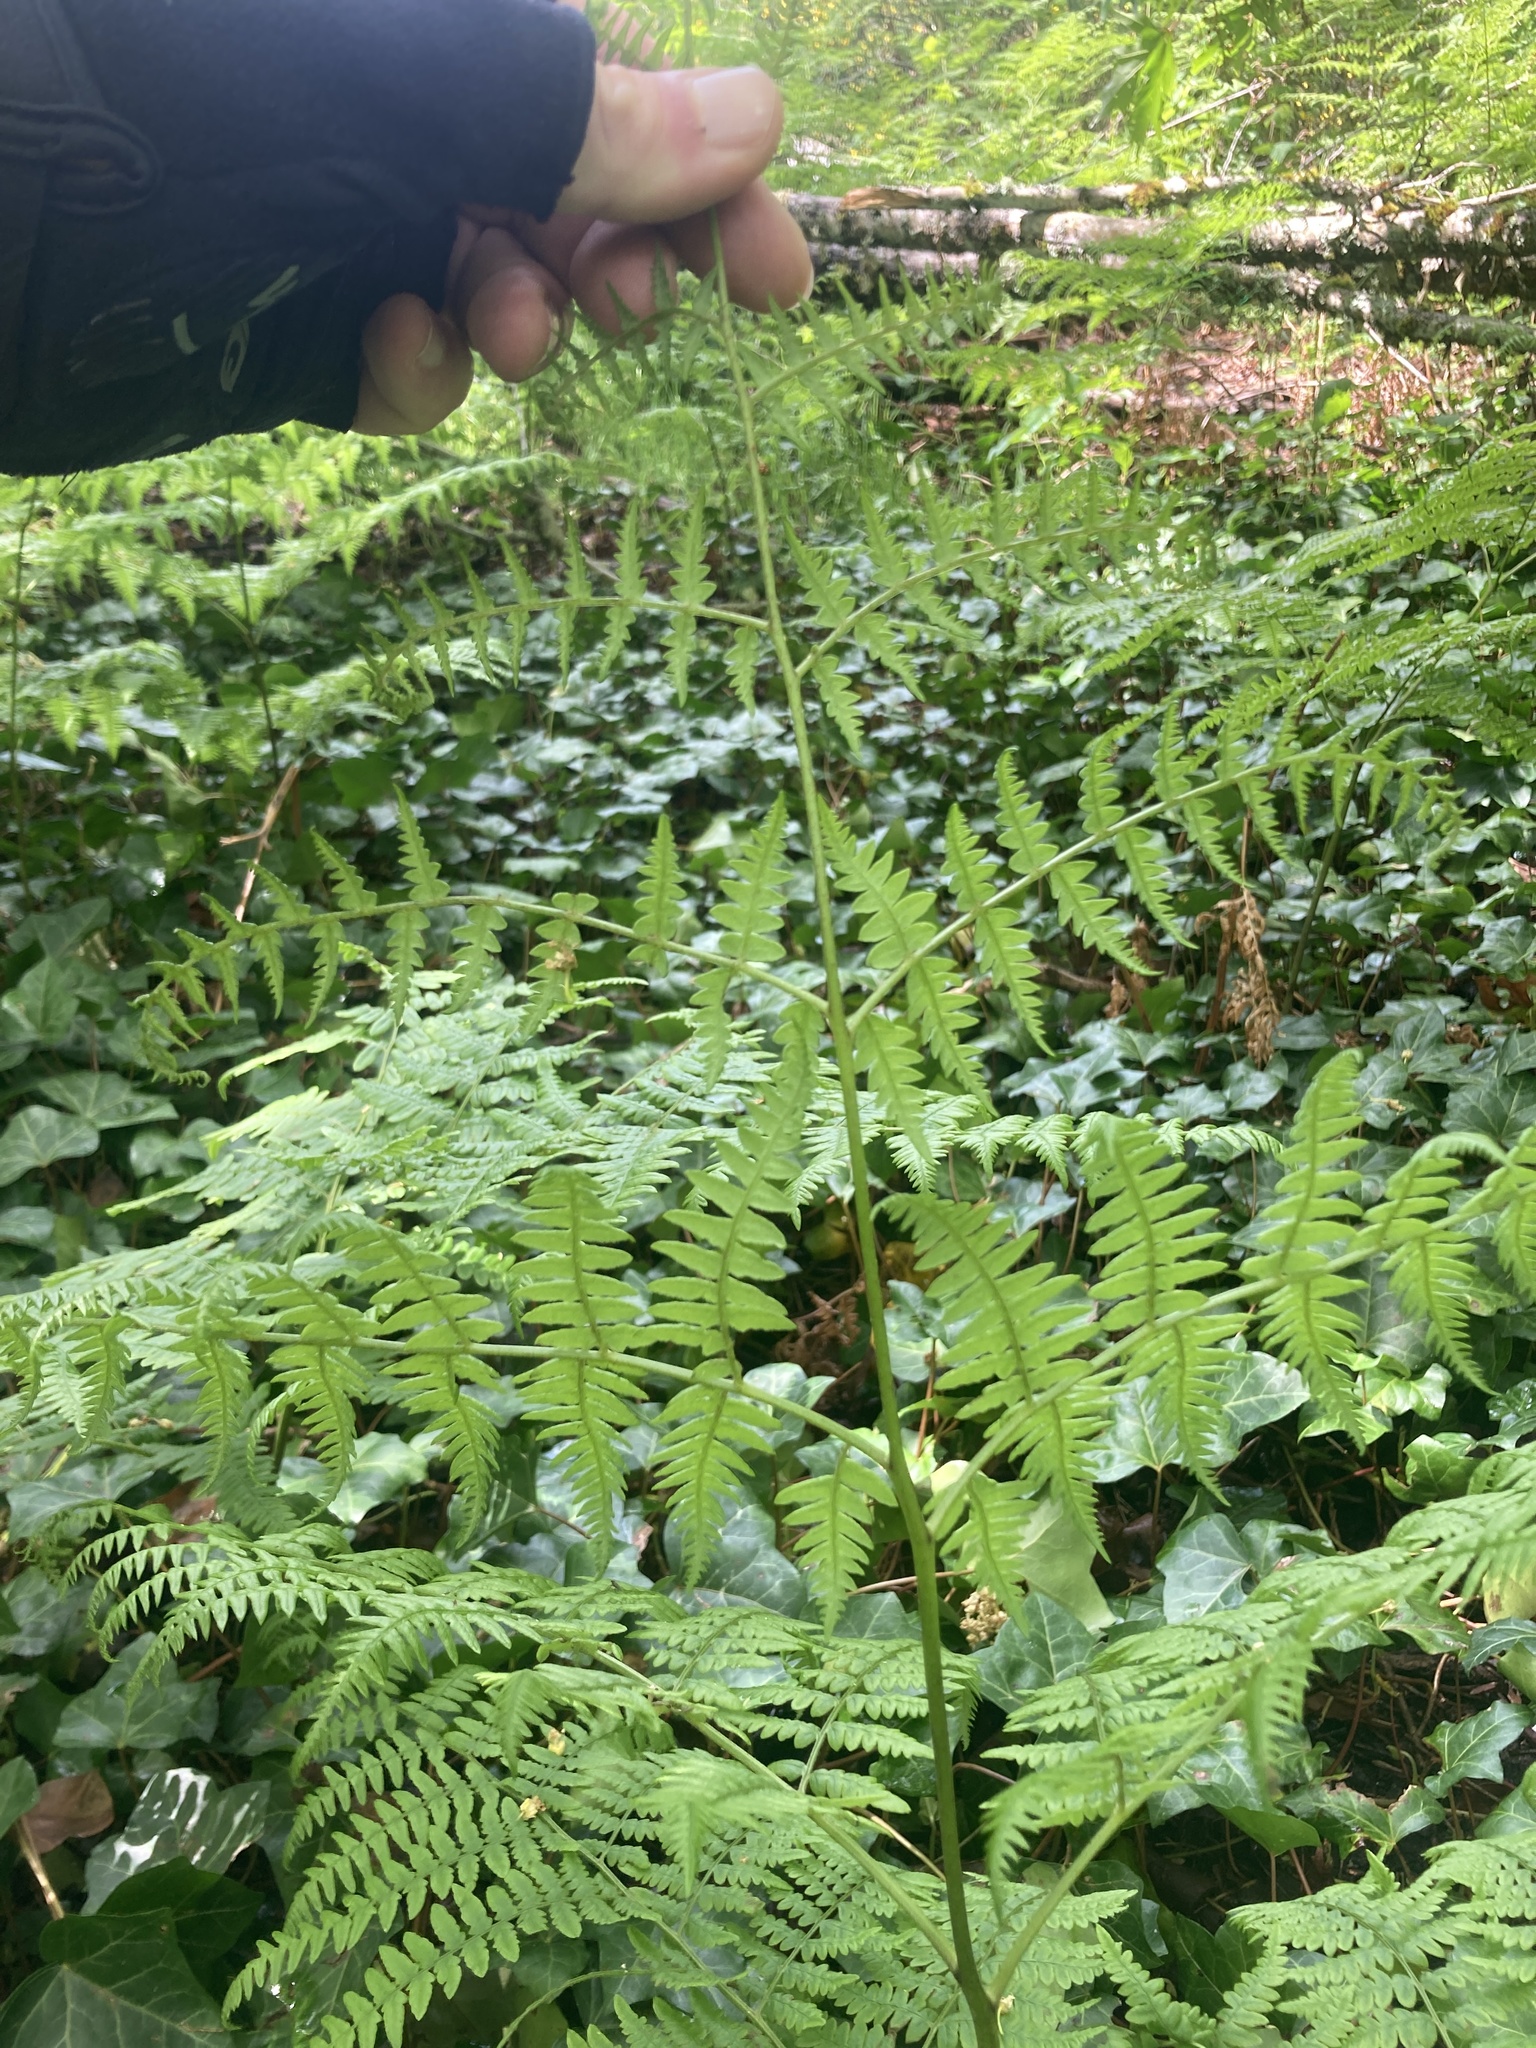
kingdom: Plantae
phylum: Tracheophyta
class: Polypodiopsida
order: Polypodiales
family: Dennstaedtiaceae
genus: Pteridium
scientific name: Pteridium aquilinum
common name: Bracken
